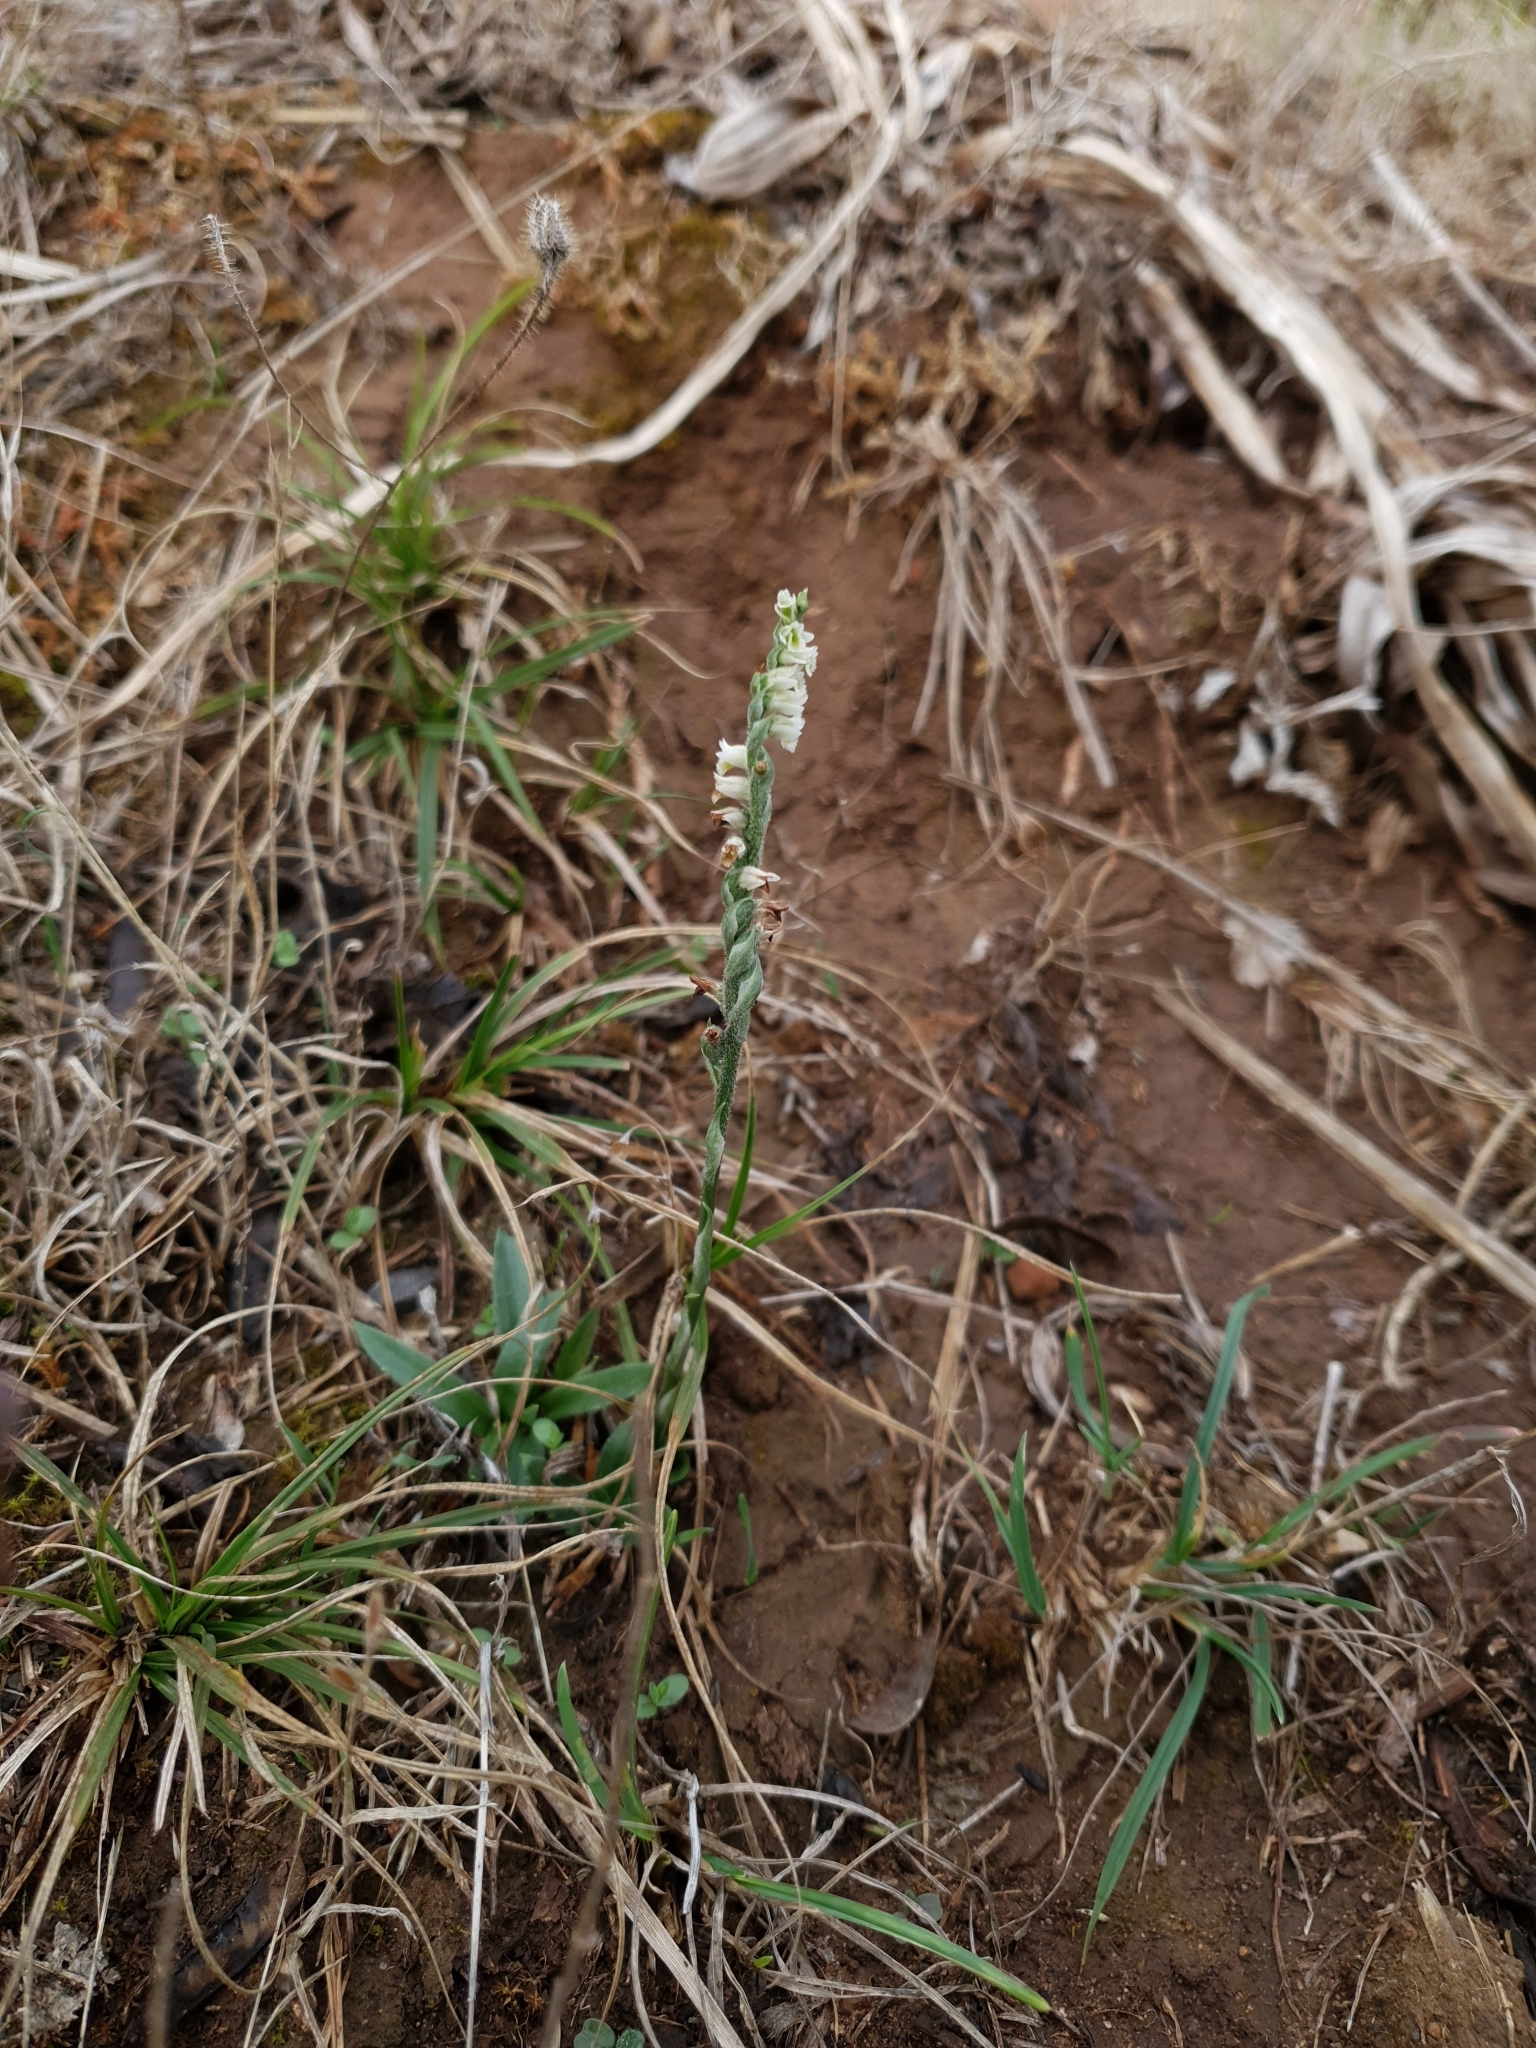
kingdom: Plantae
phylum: Tracheophyta
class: Liliopsida
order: Asparagales
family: Orchidaceae
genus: Spiranthes
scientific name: Spiranthes spiralis
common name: Autumn lady's-tresses
